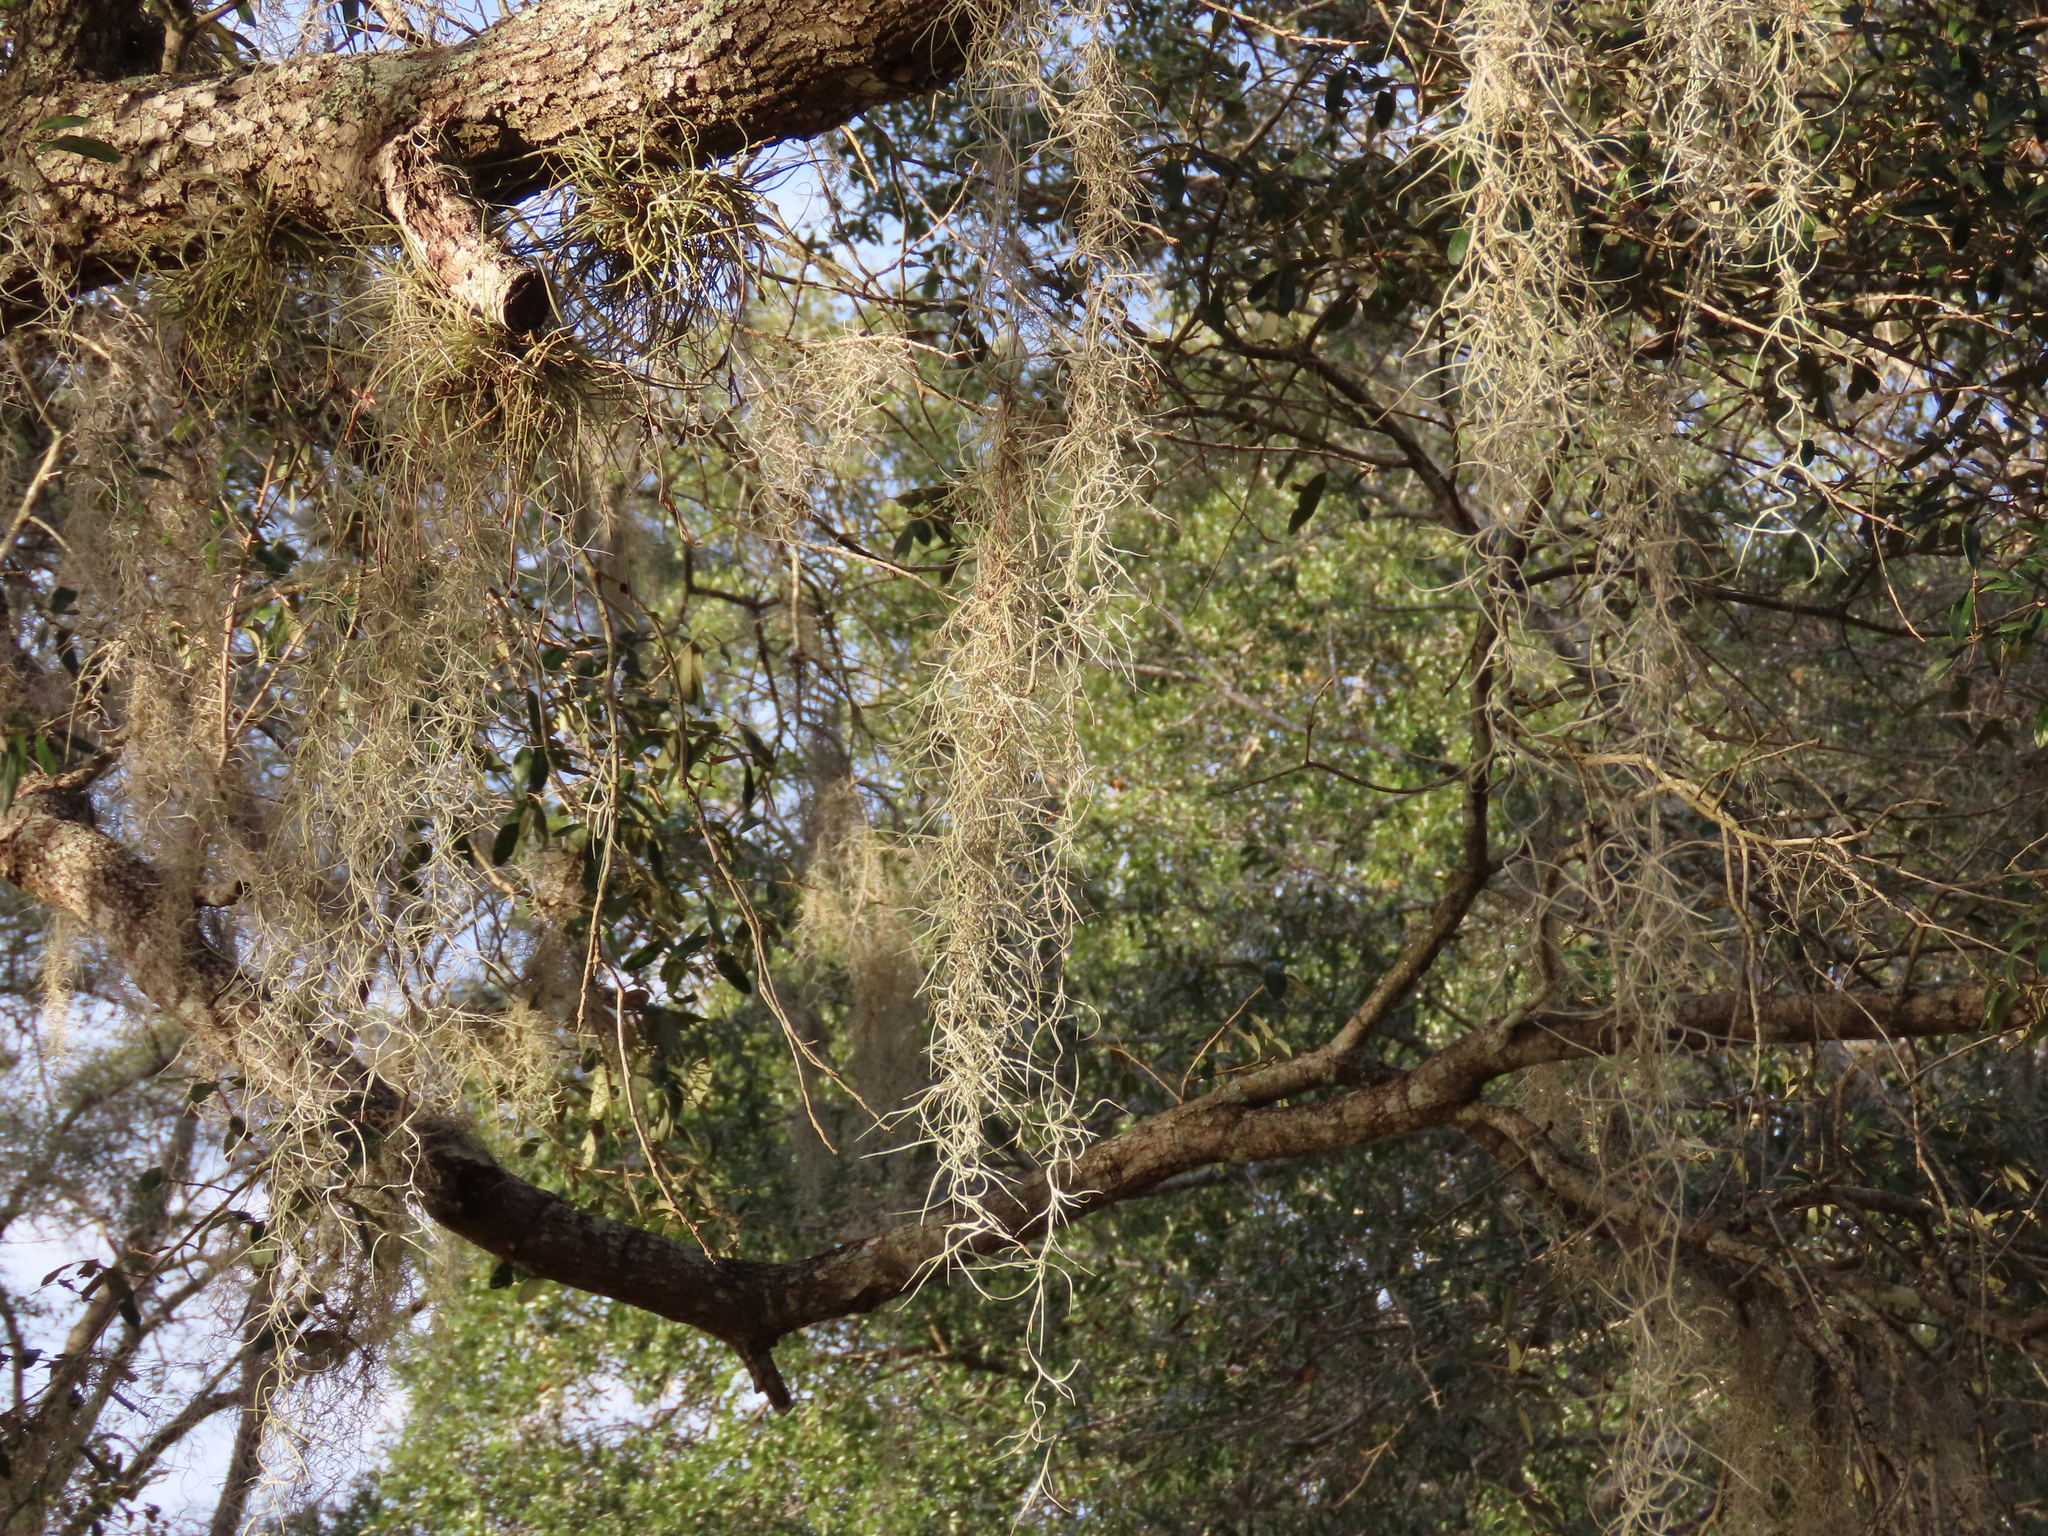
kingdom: Plantae
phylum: Tracheophyta
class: Liliopsida
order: Poales
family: Bromeliaceae
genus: Tillandsia
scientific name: Tillandsia usneoides
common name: Spanish moss
